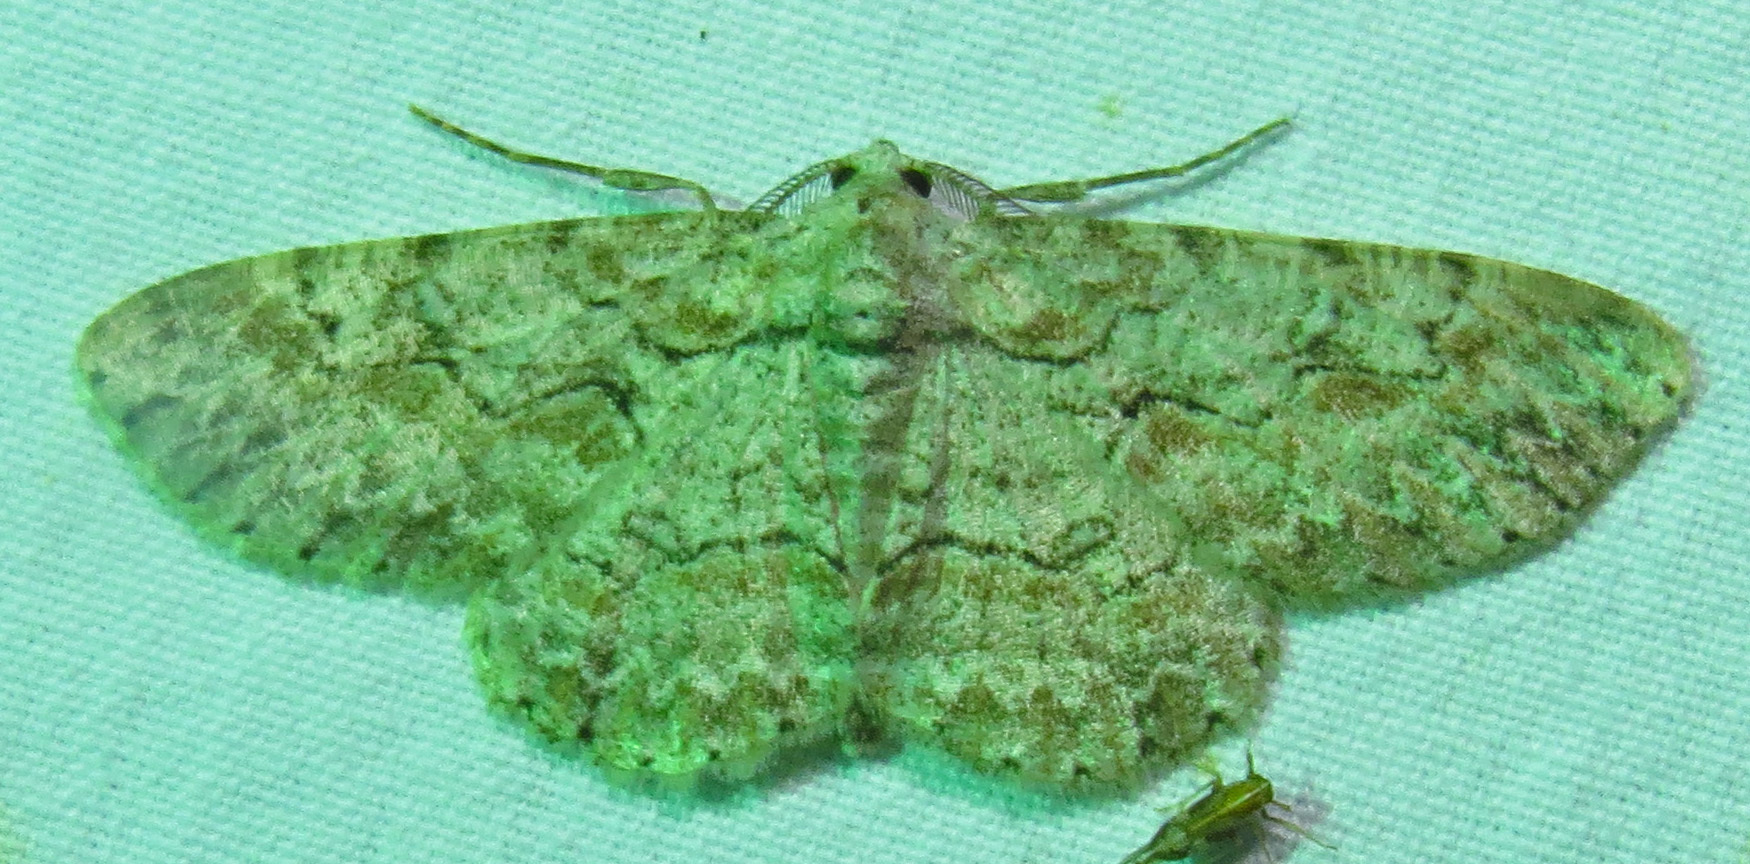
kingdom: Animalia
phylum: Arthropoda
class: Insecta
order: Lepidoptera
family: Geometridae
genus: Iridopsis
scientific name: Iridopsis defectaria
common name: Brown-shaded gray
